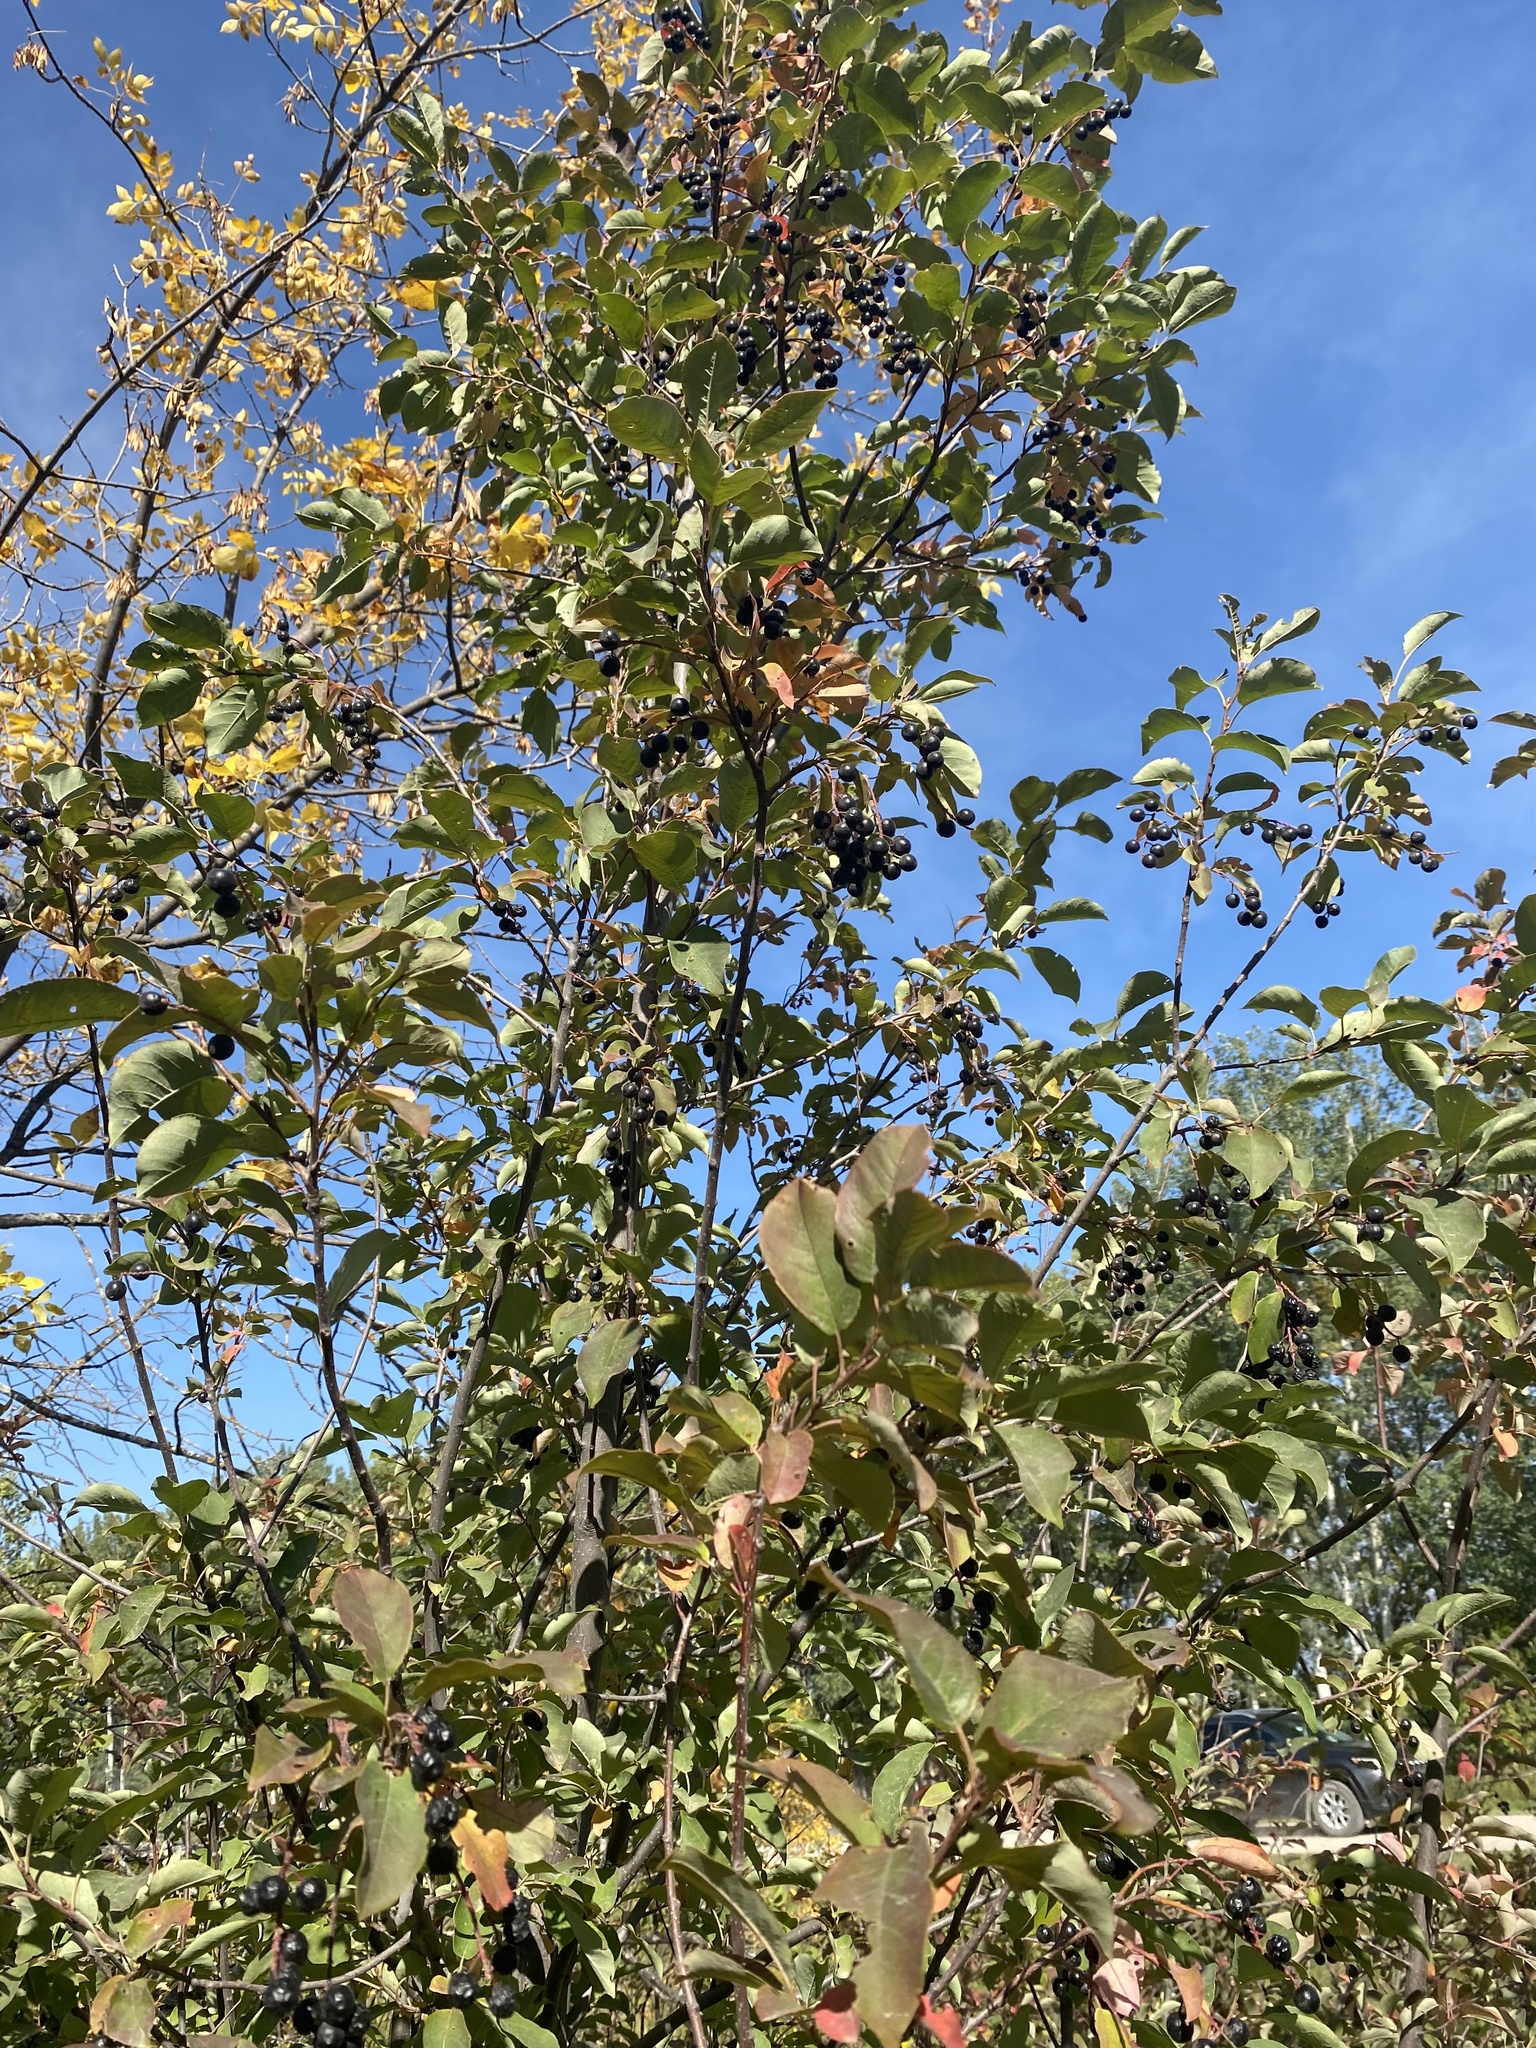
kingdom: Plantae
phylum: Tracheophyta
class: Magnoliopsida
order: Rosales
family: Rosaceae
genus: Prunus
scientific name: Prunus virginiana
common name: Chokecherry
